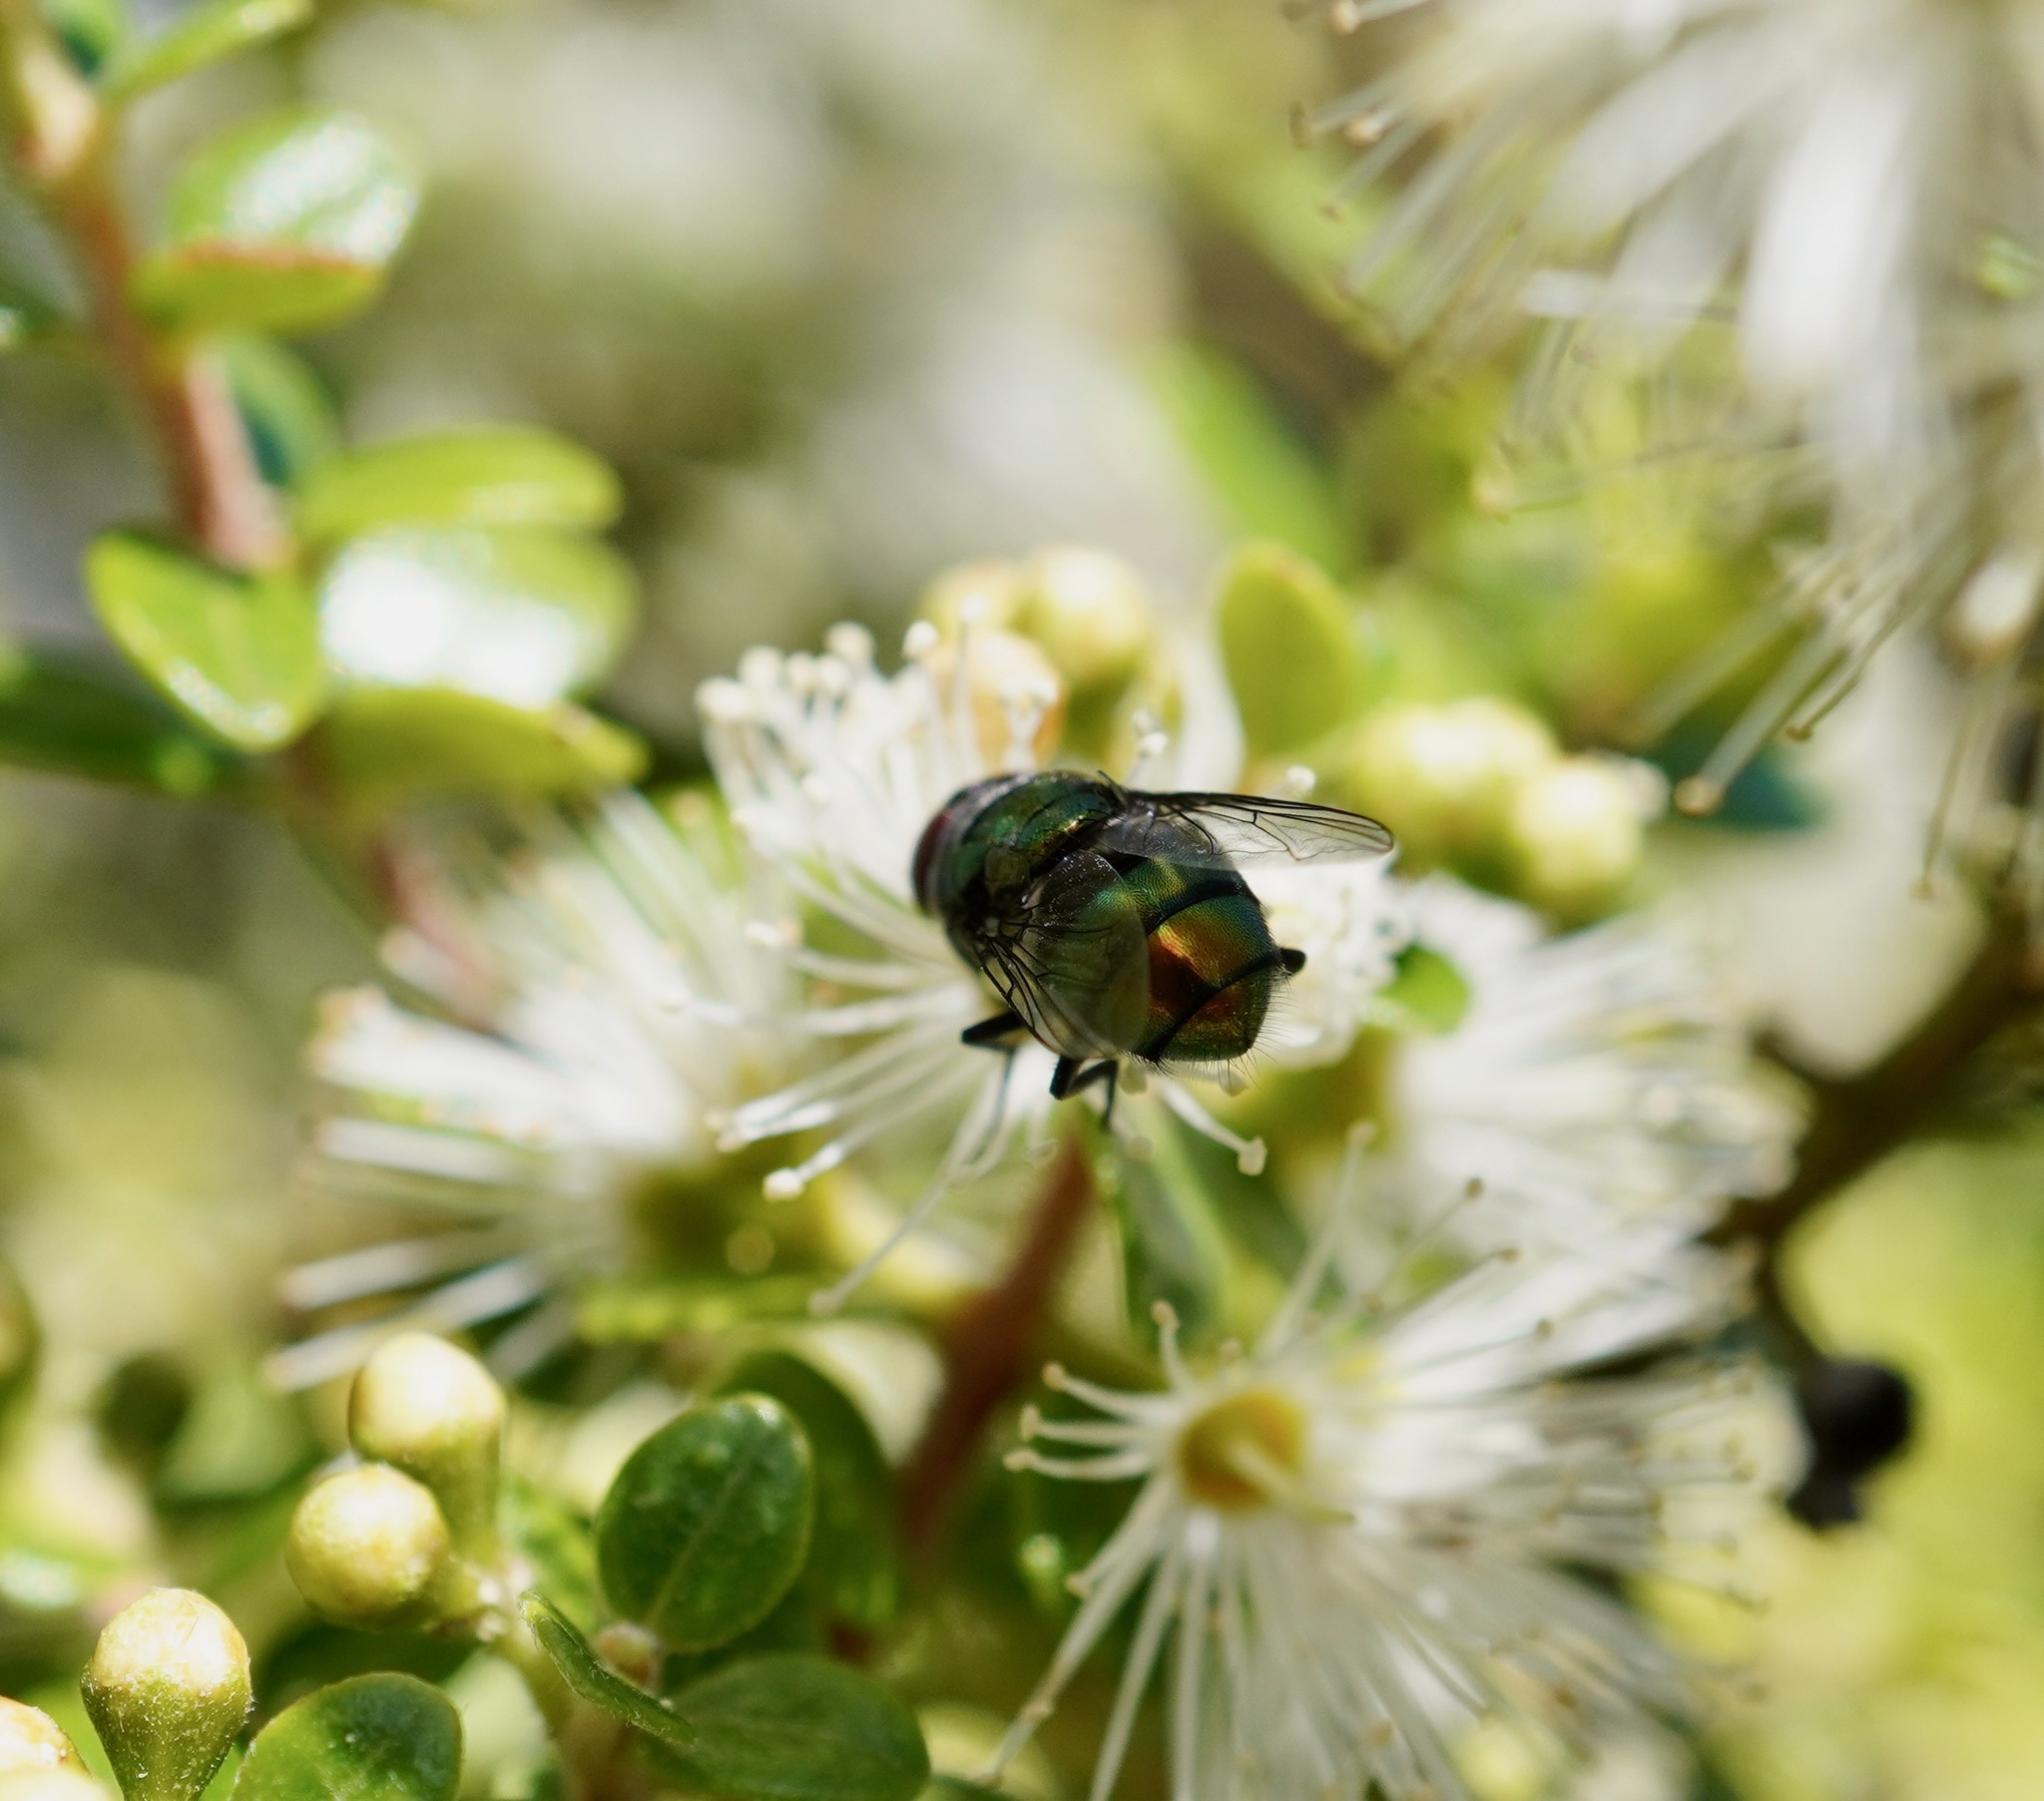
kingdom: Animalia
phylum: Arthropoda
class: Insecta
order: Diptera
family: Calliphoridae
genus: Lucilia
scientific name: Lucilia sericata
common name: Blow fly
